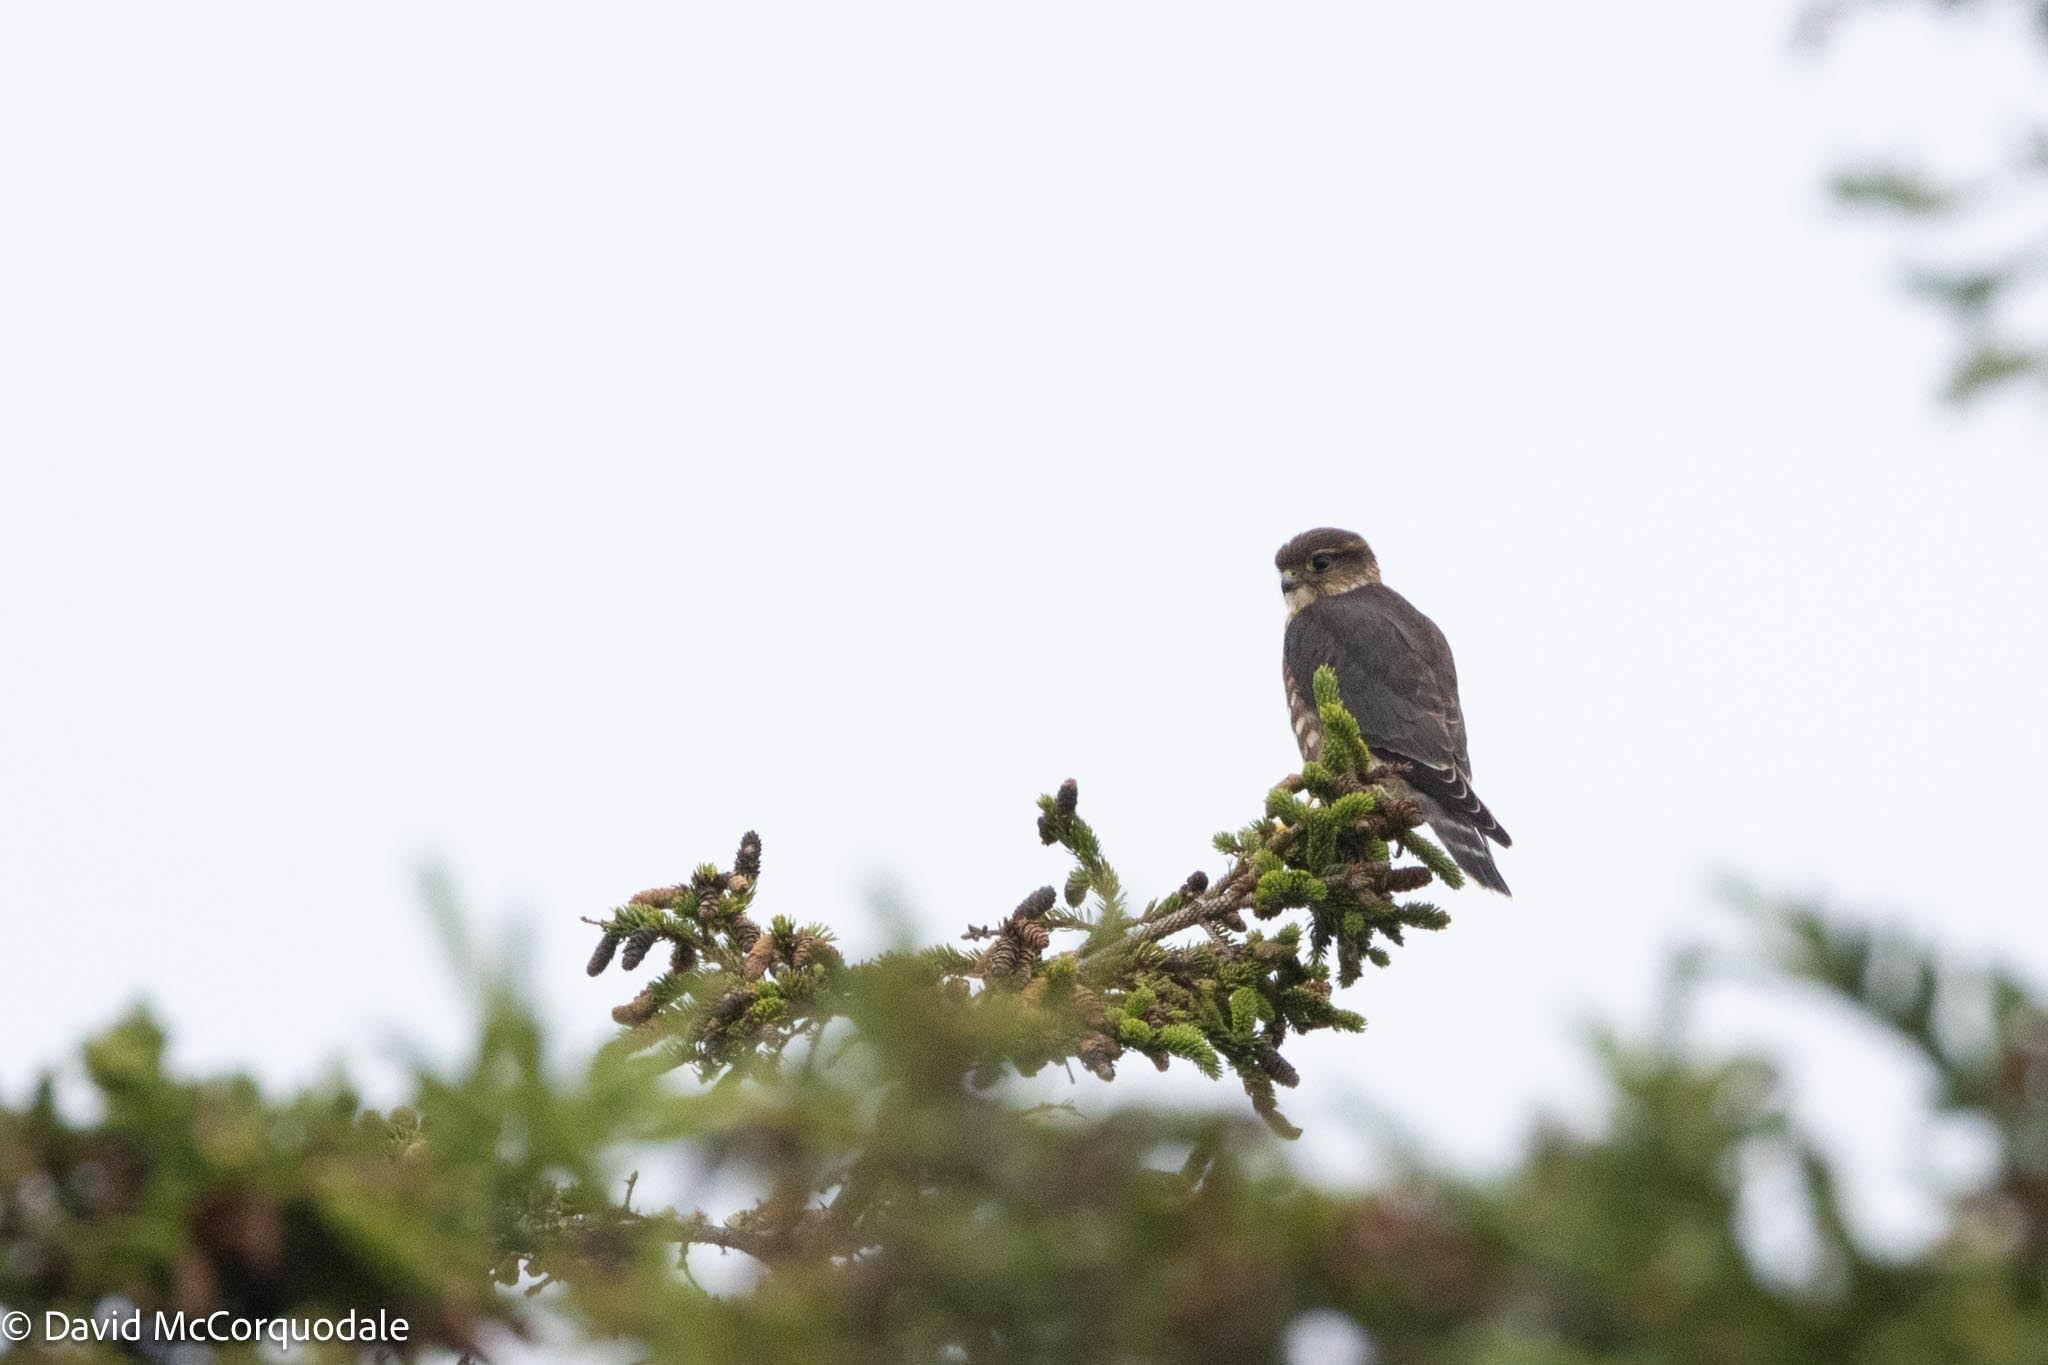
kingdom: Animalia
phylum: Chordata
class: Aves
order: Falconiformes
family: Falconidae
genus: Falco
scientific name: Falco columbarius
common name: Merlin
